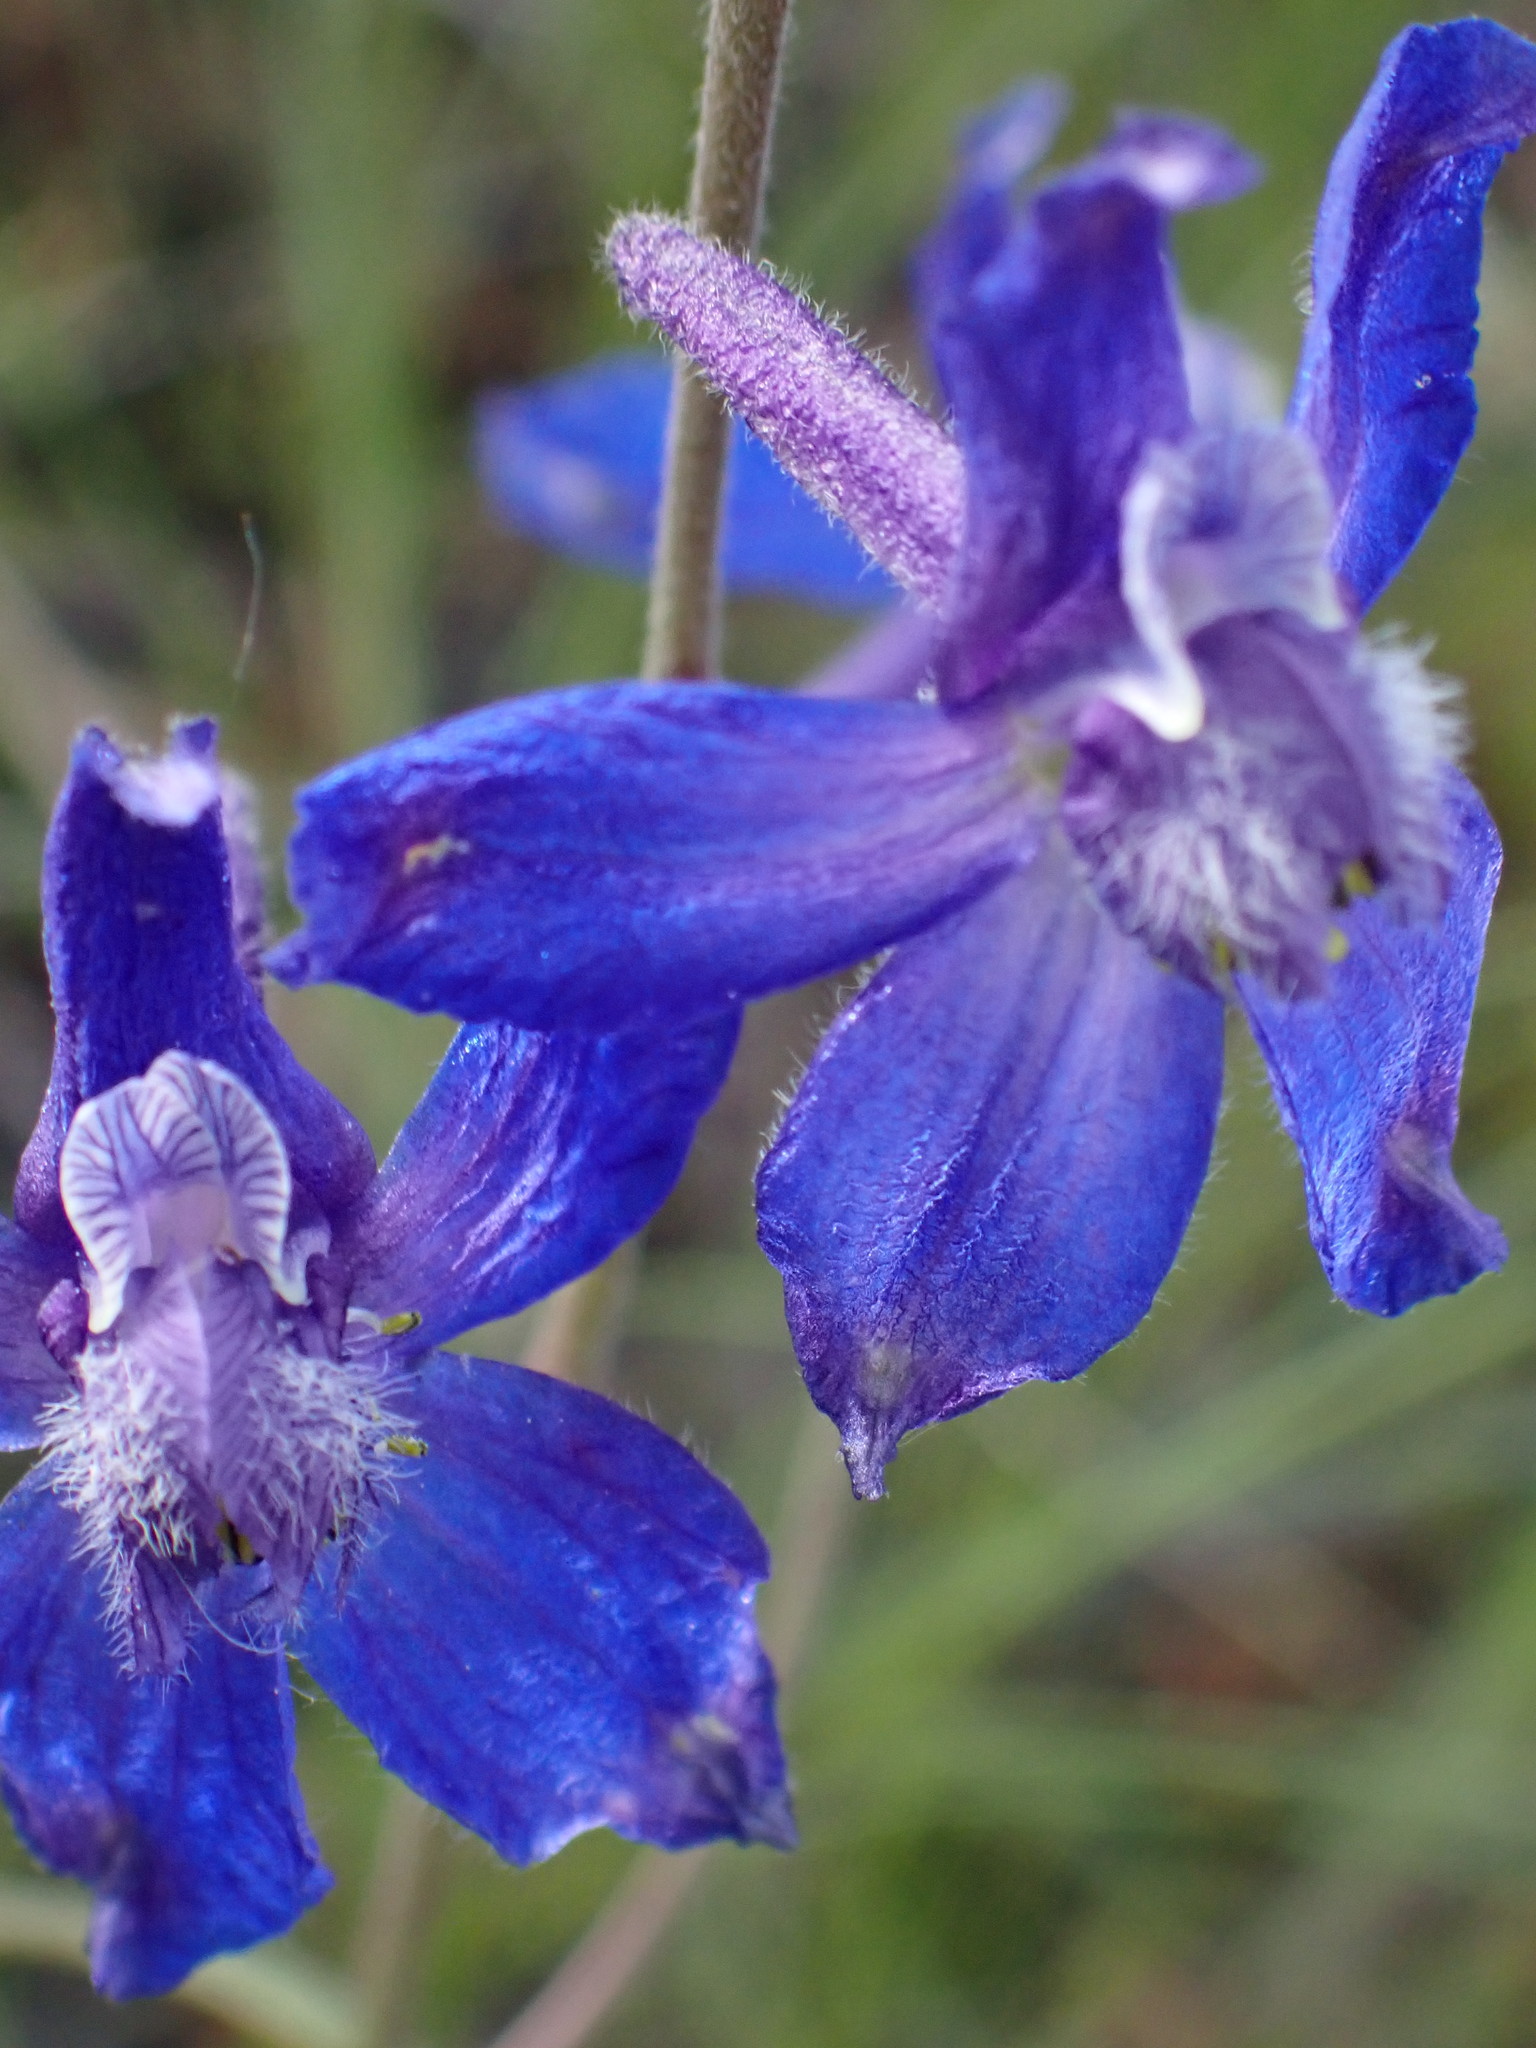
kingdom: Plantae
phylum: Tracheophyta
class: Magnoliopsida
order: Ranunculales
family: Ranunculaceae
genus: Delphinium
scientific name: Delphinium nuttallianum
